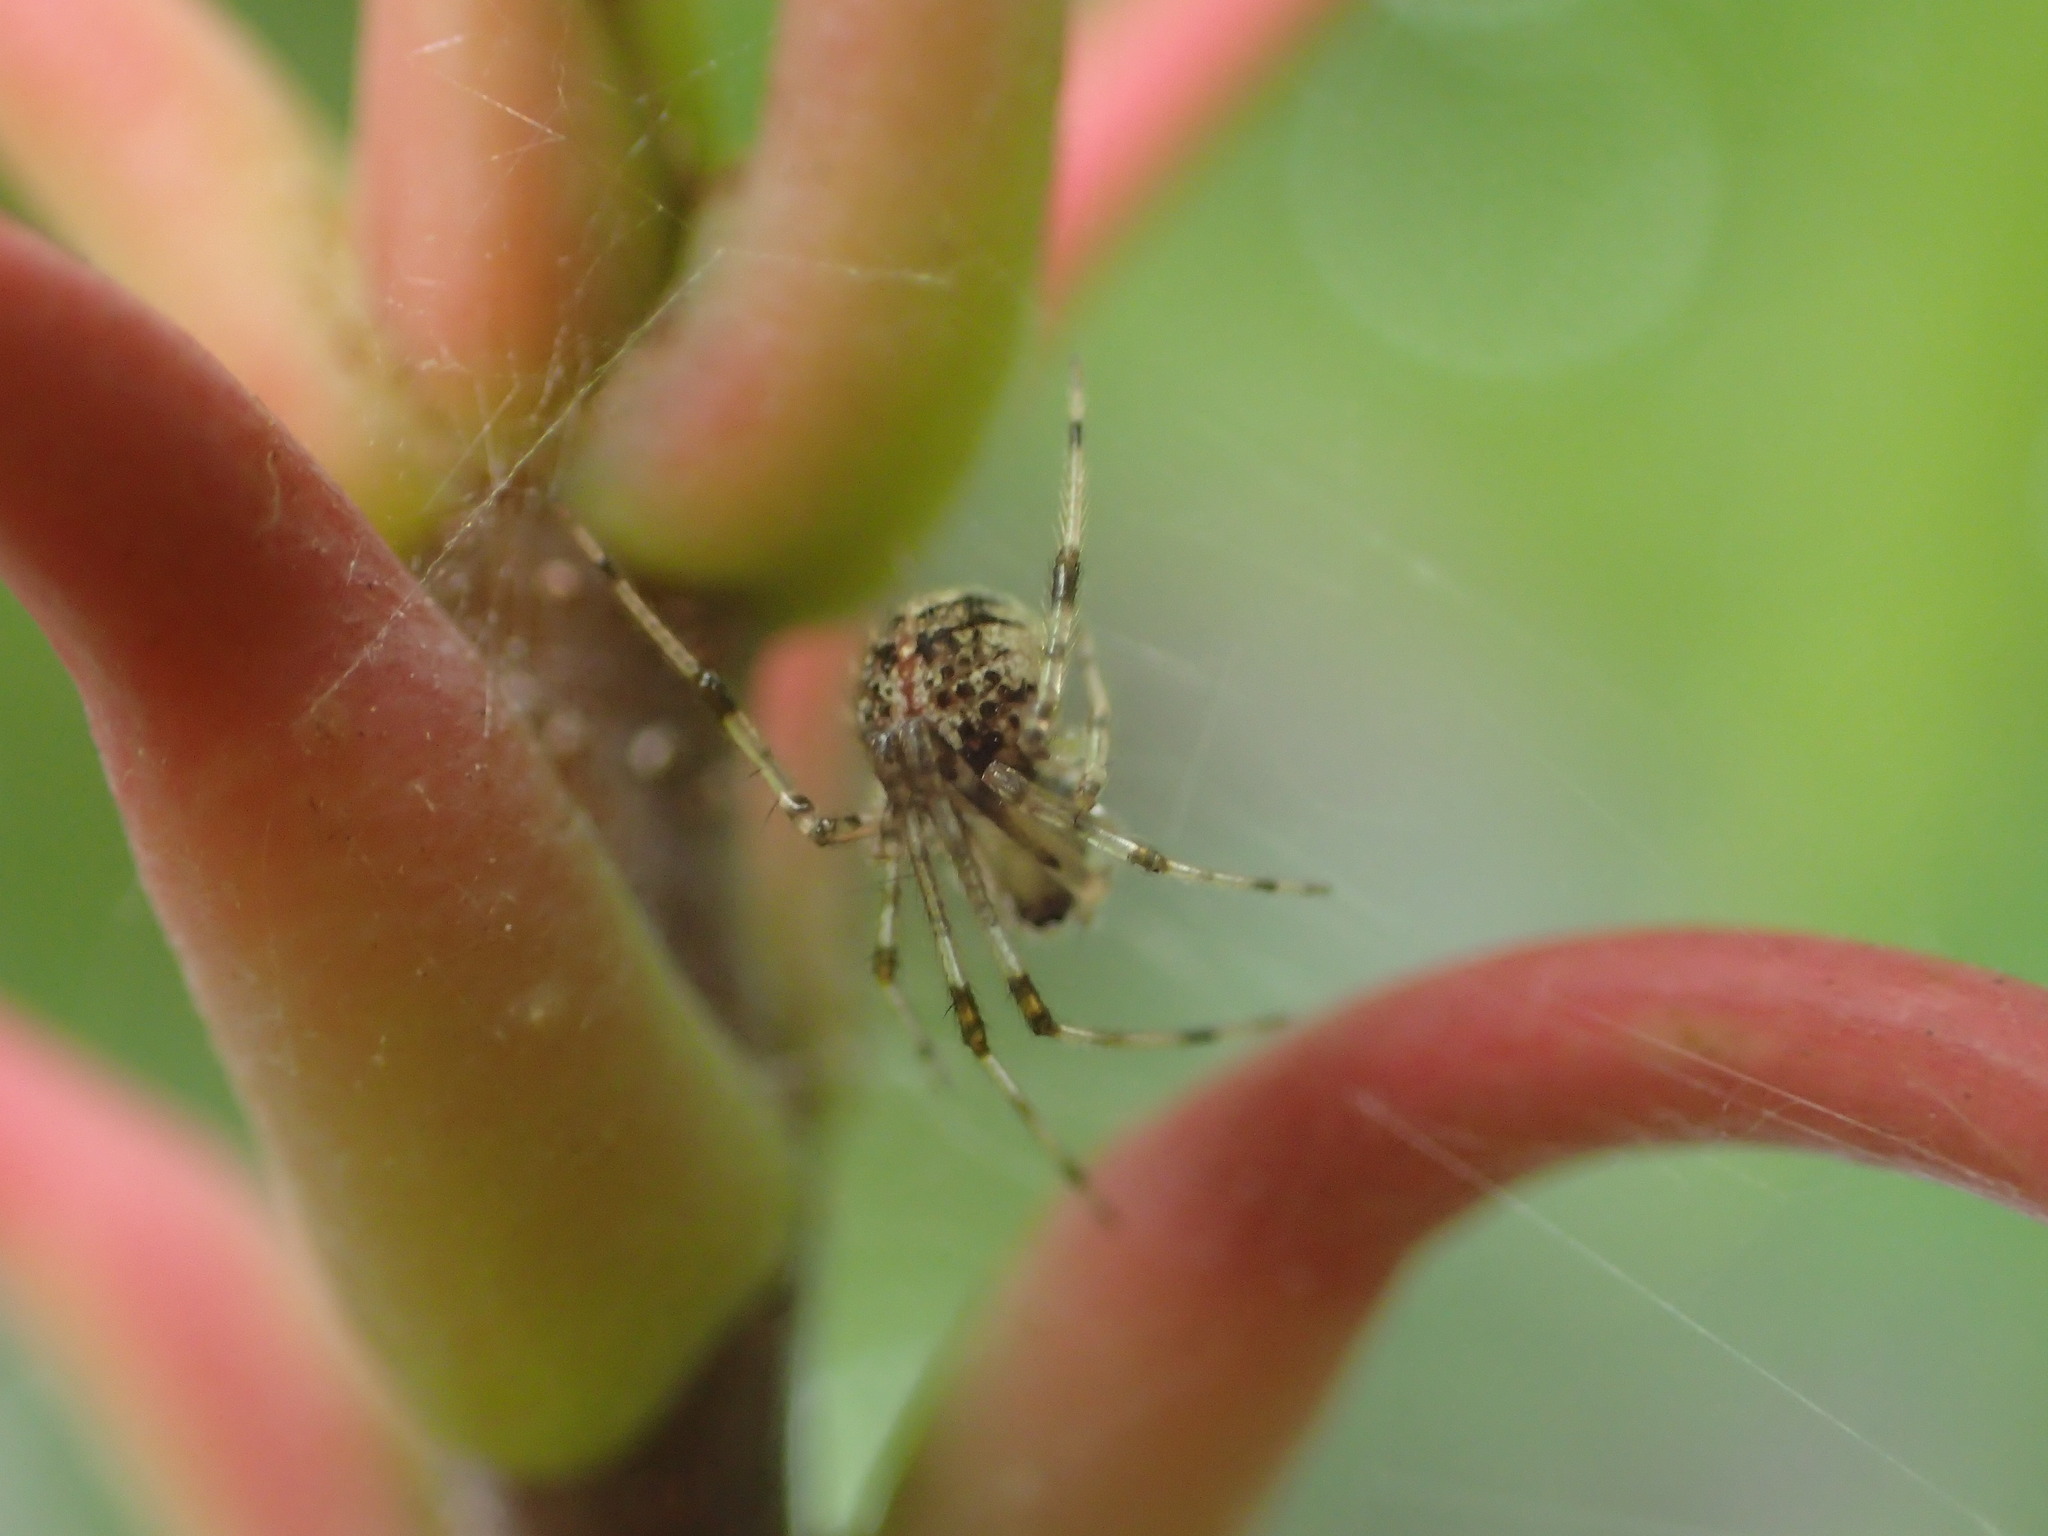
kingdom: Animalia
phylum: Arthropoda
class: Arachnida
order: Araneae
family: Theridiidae
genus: Yunohamella
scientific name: Yunohamella lyrica
